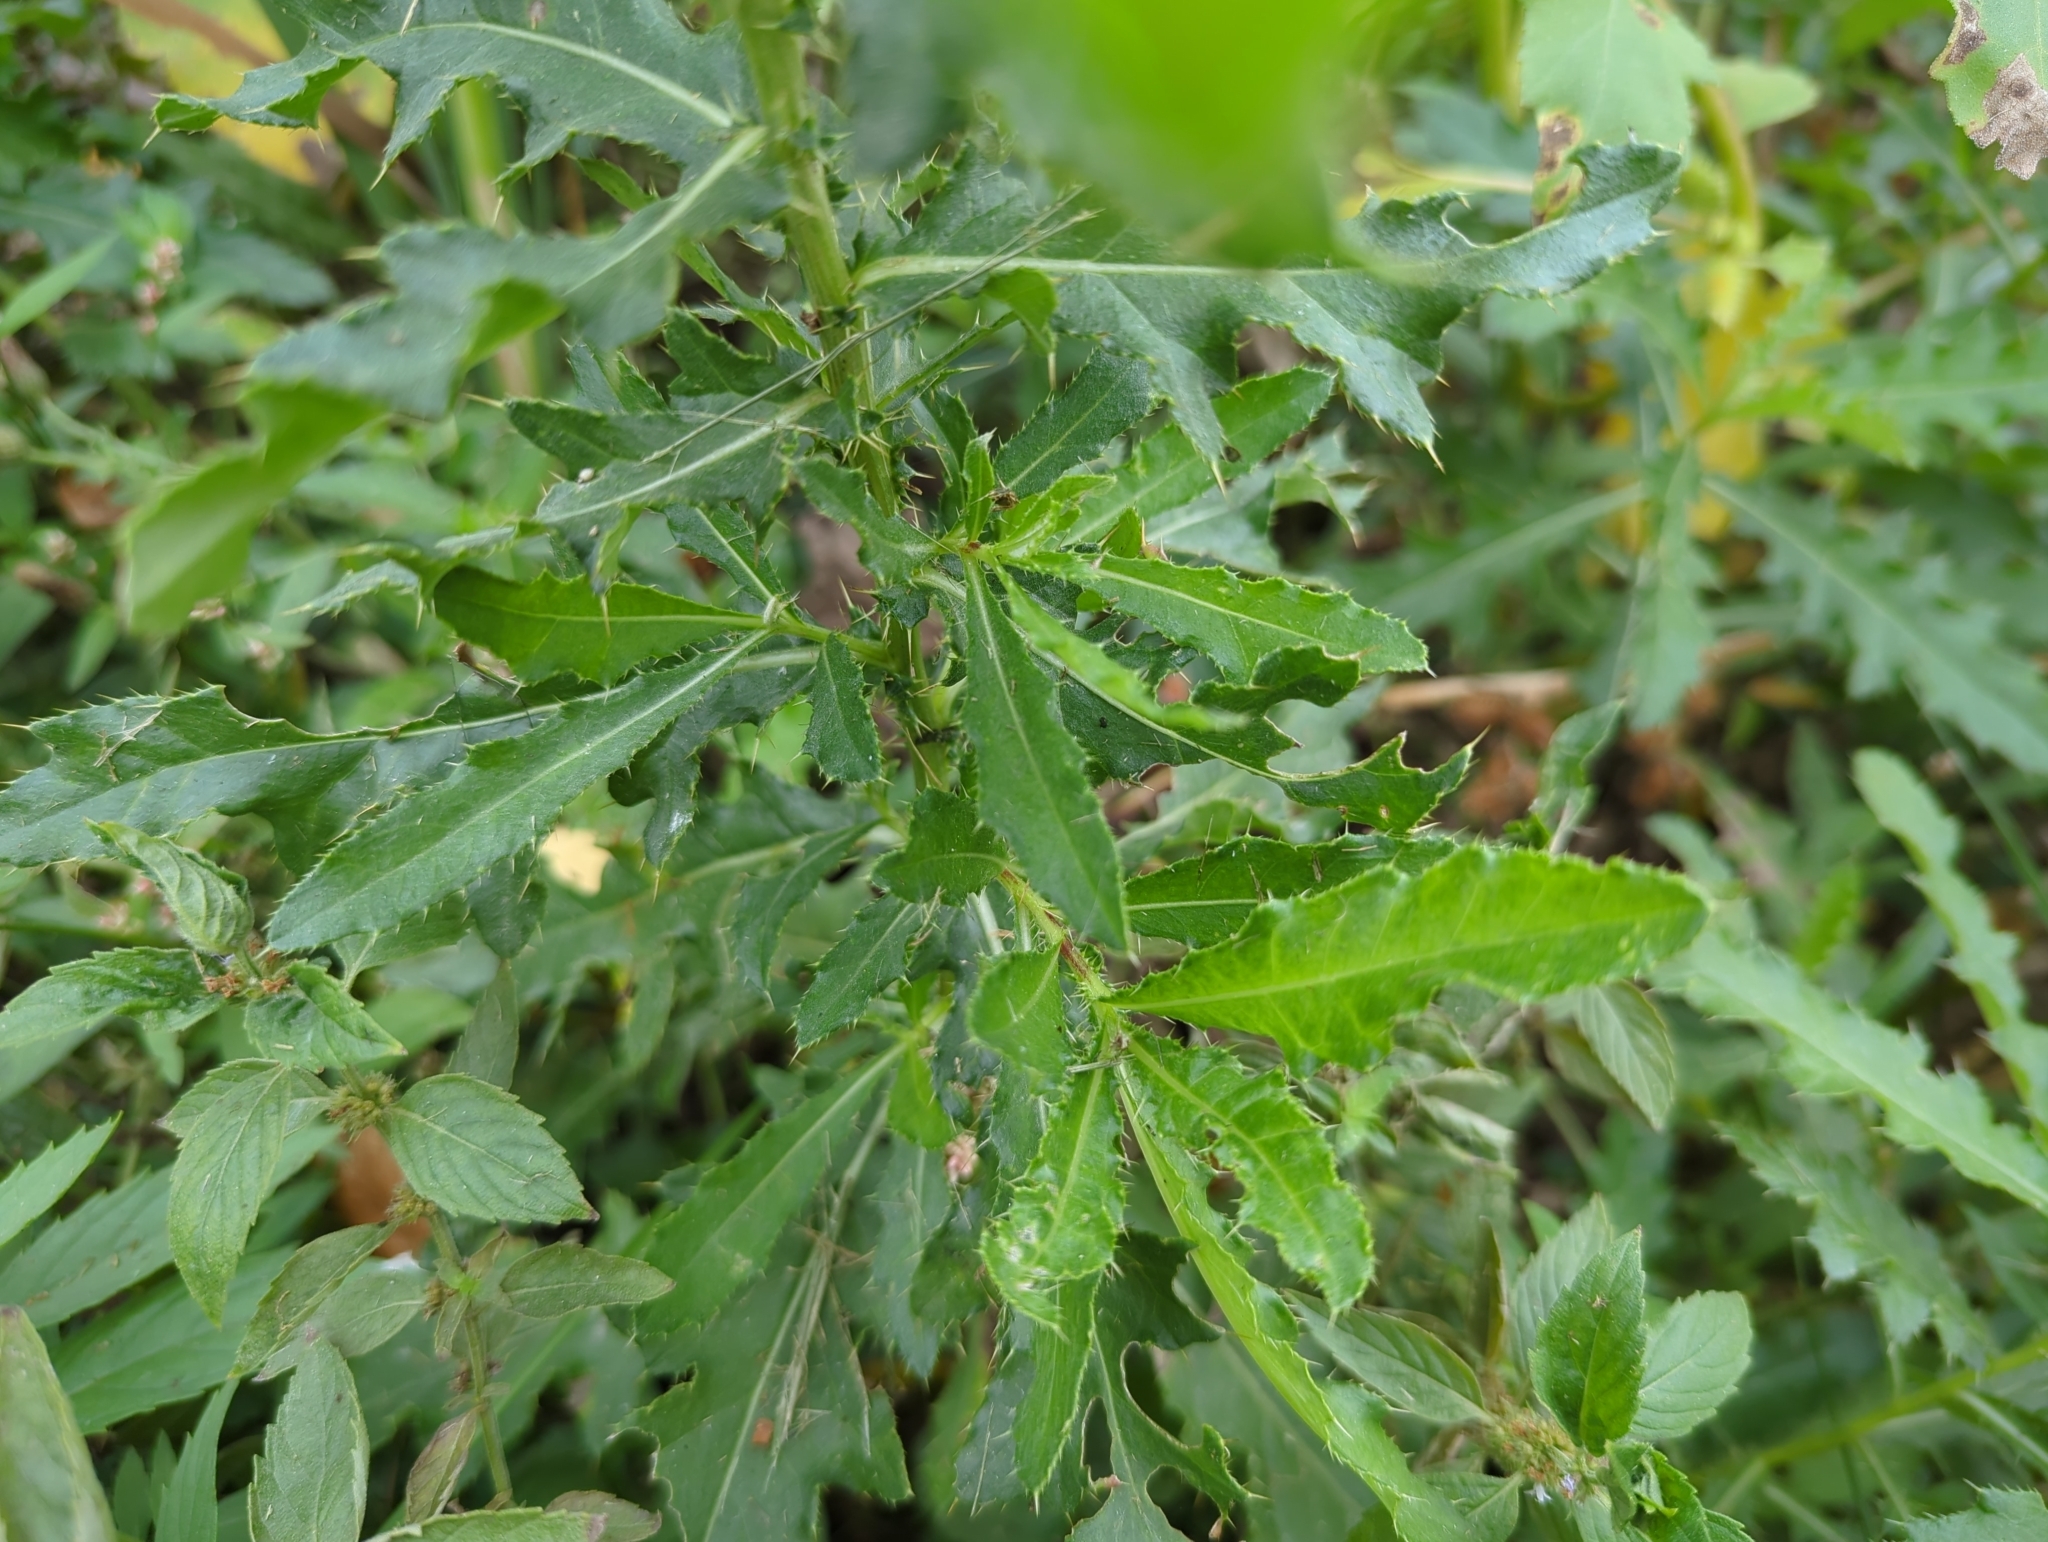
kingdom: Plantae
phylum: Tracheophyta
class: Magnoliopsida
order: Asterales
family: Asteraceae
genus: Cirsium
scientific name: Cirsium arvense
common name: Creeping thistle
